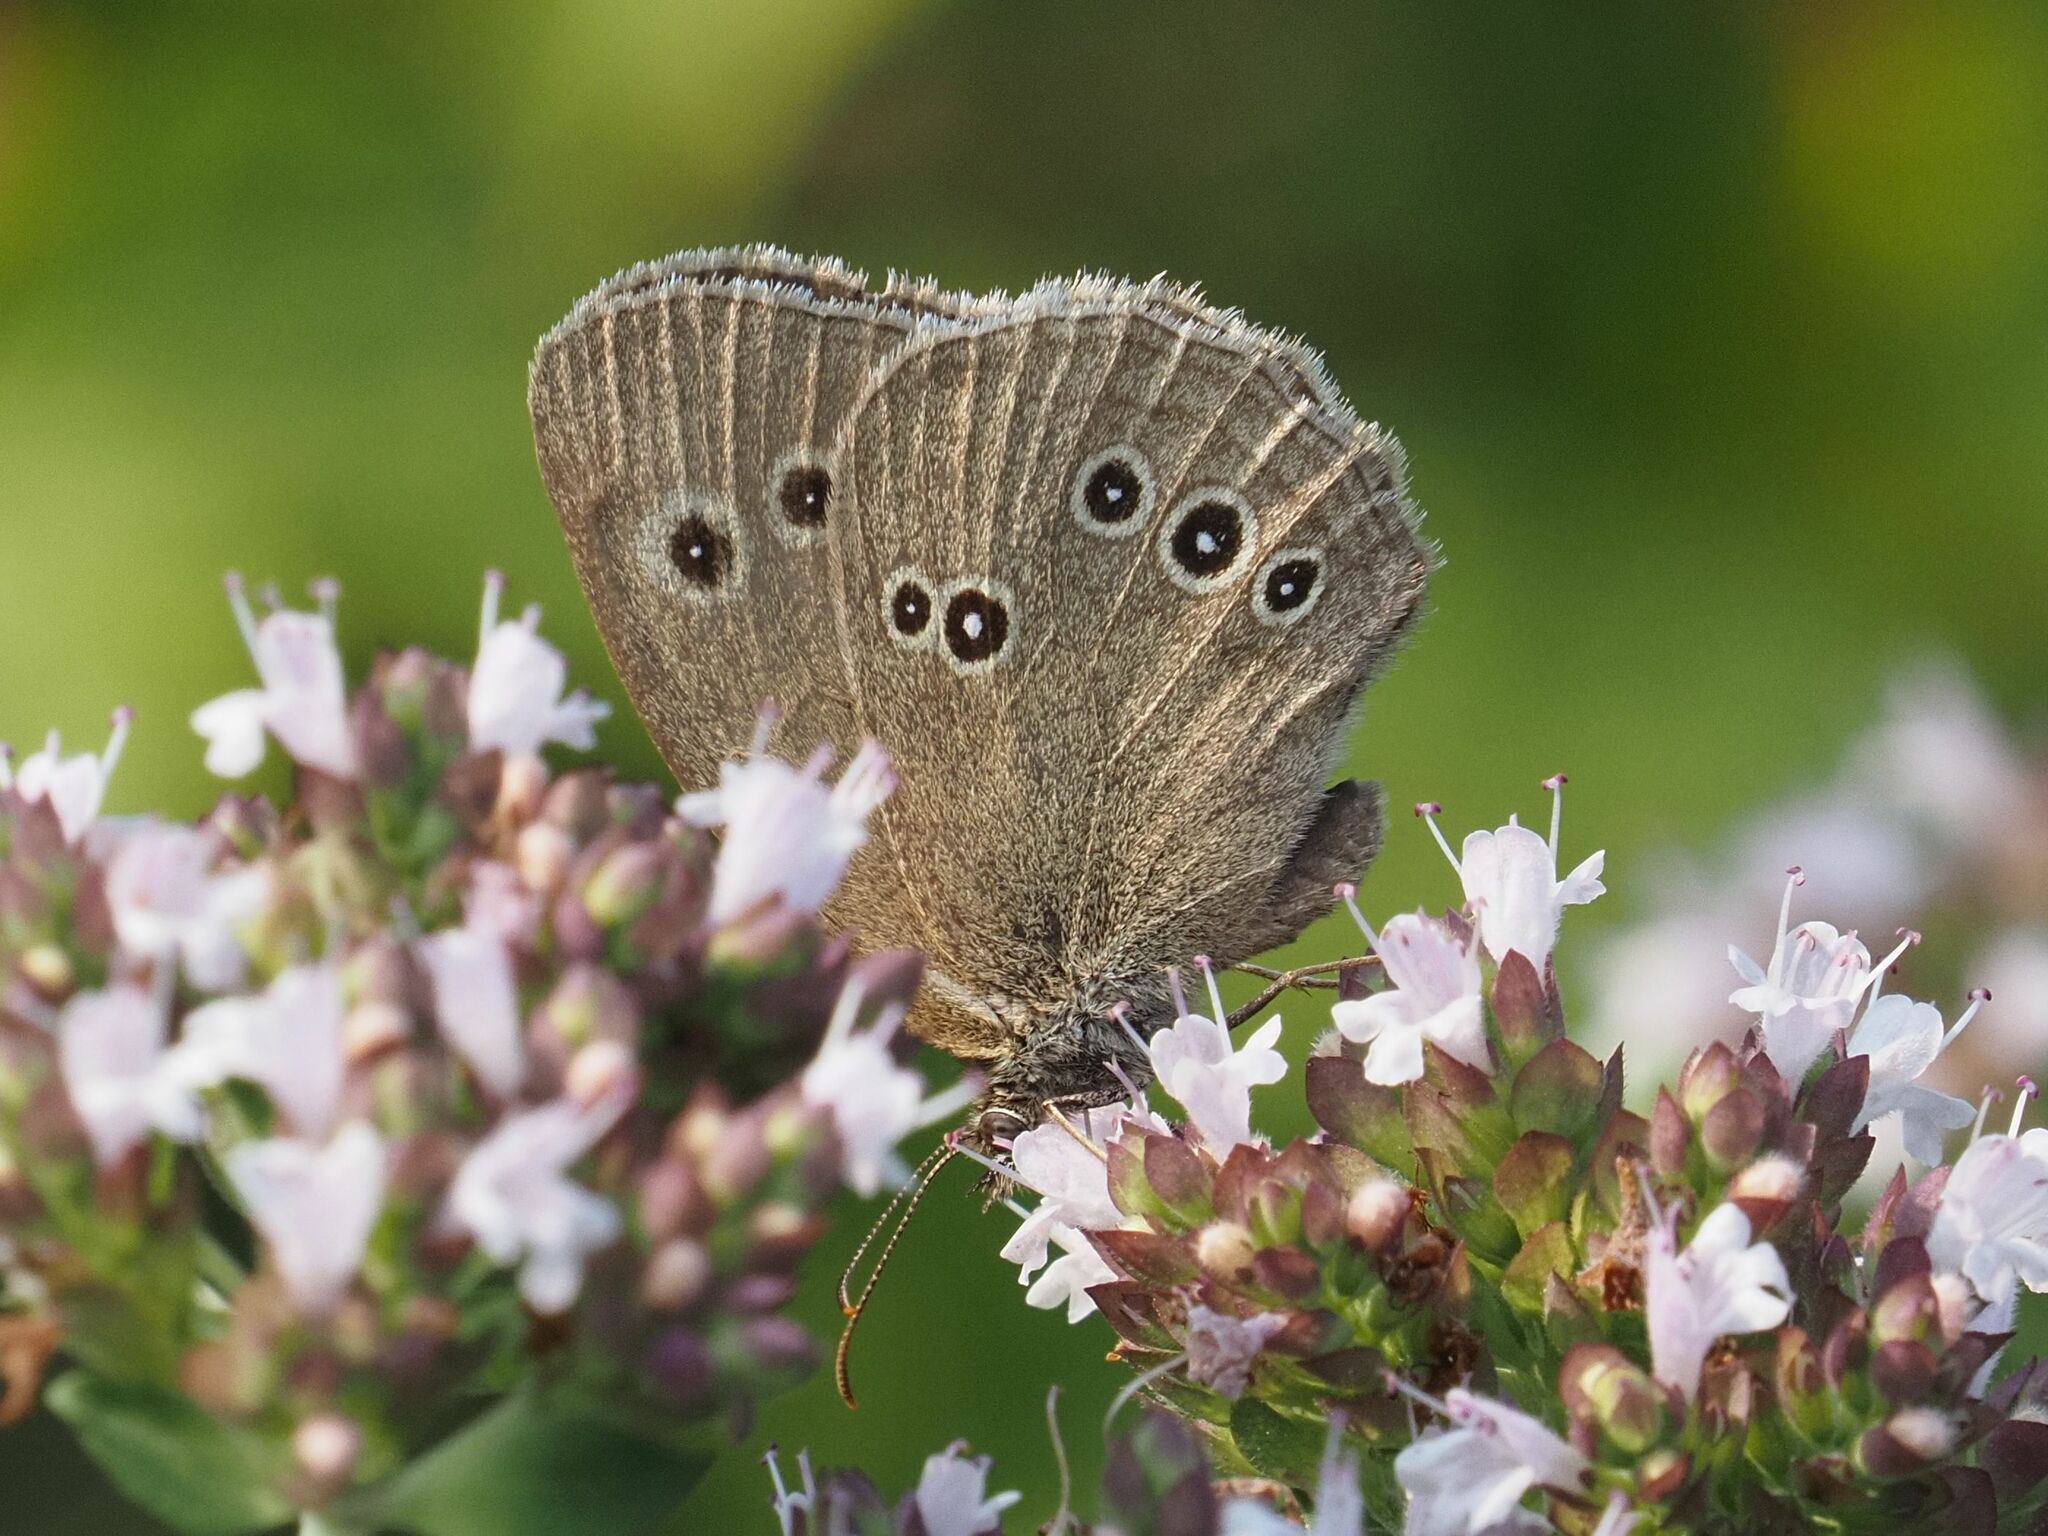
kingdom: Animalia
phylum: Arthropoda
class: Insecta
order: Lepidoptera
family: Nymphalidae
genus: Aphantopus
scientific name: Aphantopus hyperantus
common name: Ringlet
